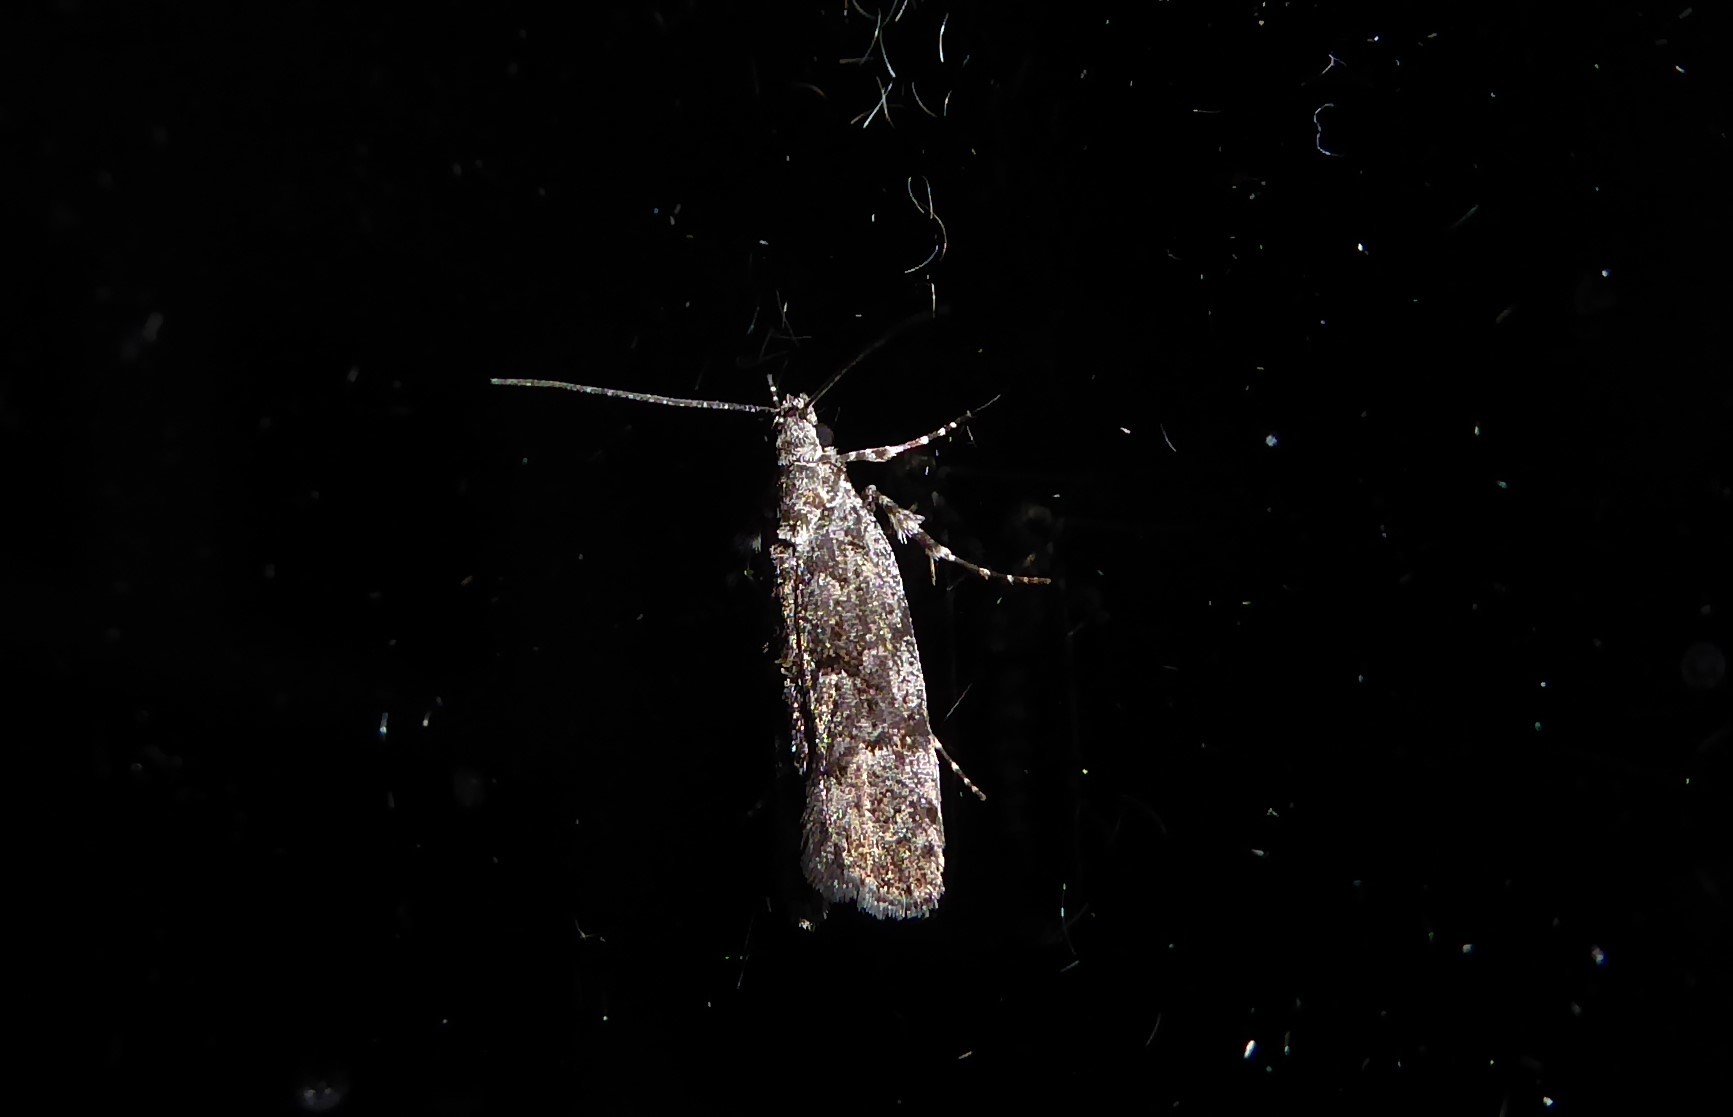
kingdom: Animalia
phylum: Arthropoda
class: Insecta
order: Lepidoptera
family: Oecophoridae
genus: Izatha
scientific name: Izatha copiosella
